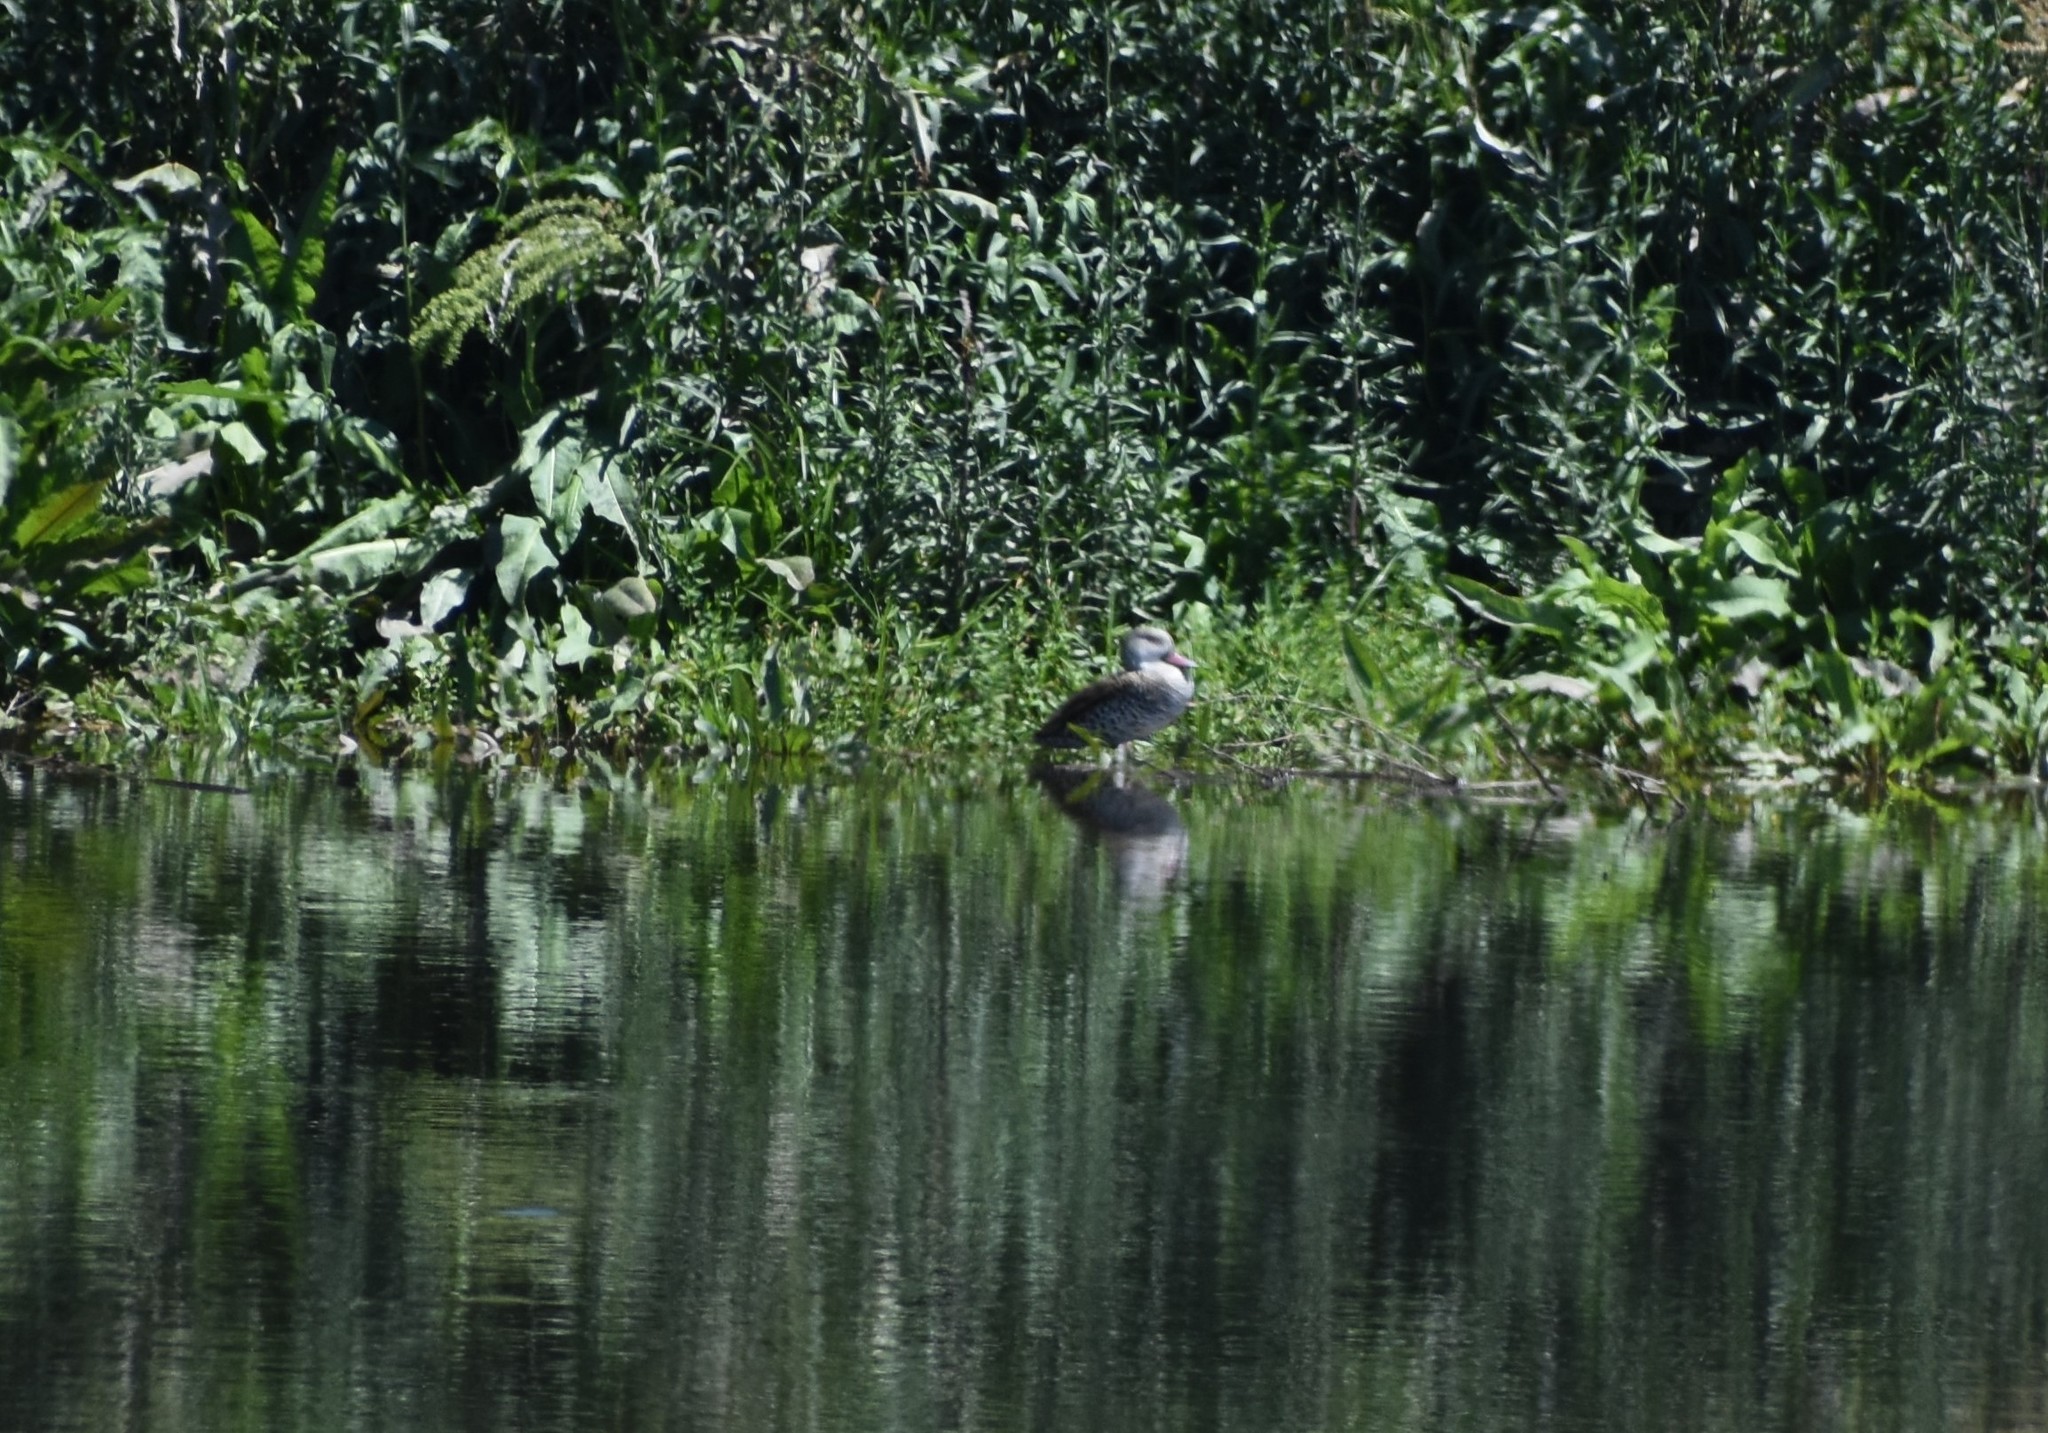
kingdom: Animalia
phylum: Chordata
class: Aves
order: Anseriformes
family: Anatidae
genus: Anas
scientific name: Anas capensis
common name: Cape teal
